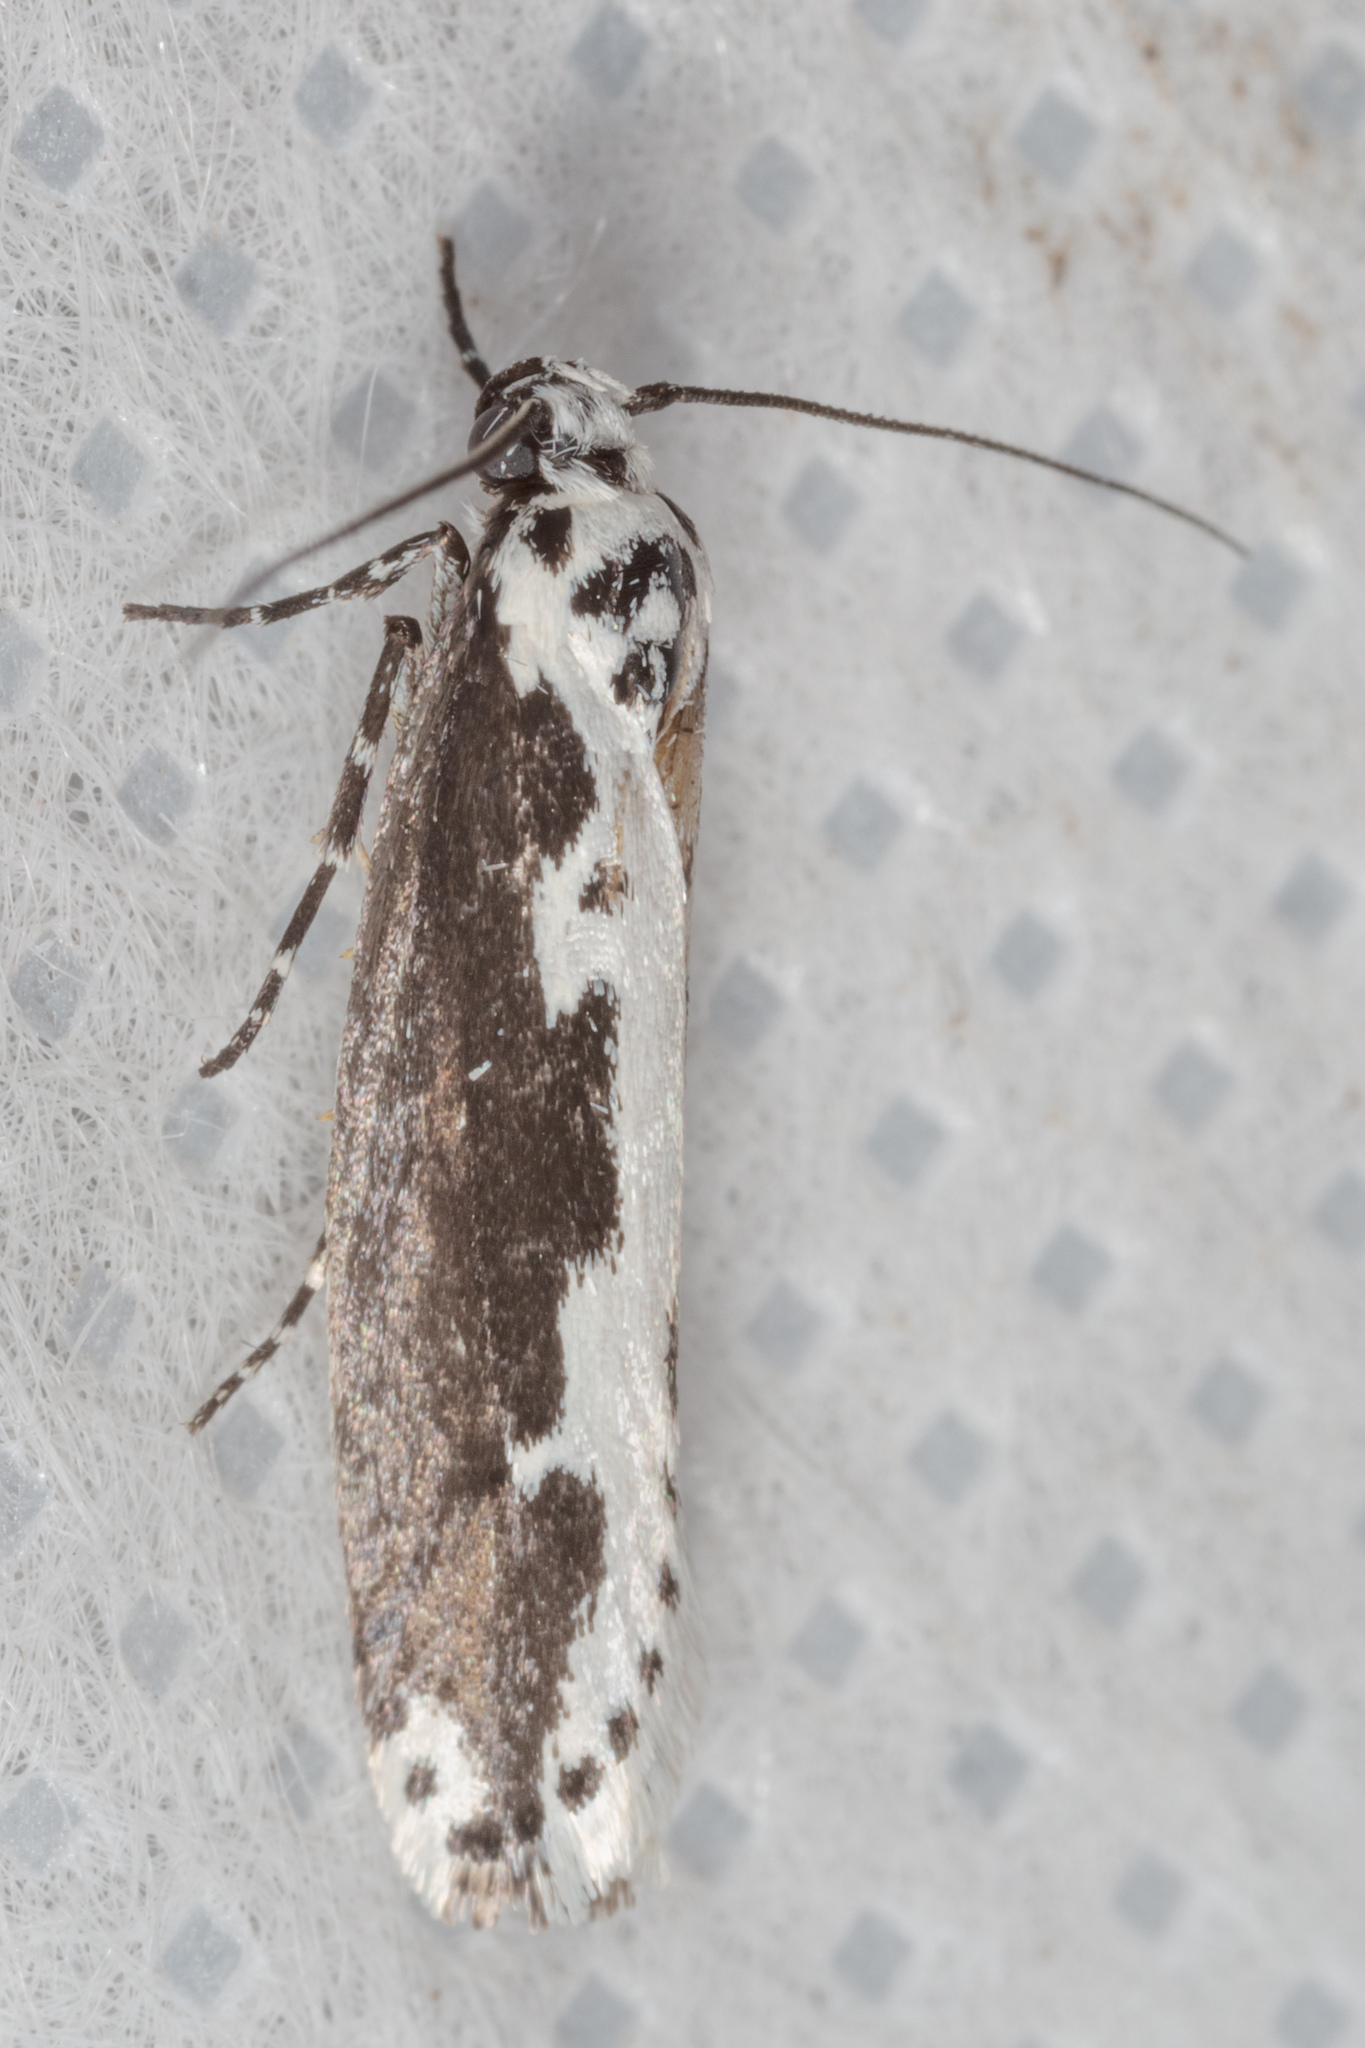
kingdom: Animalia
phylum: Arthropoda
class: Insecta
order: Lepidoptera
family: Ethmiidae
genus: Ethmia
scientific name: Ethmia semilugens
